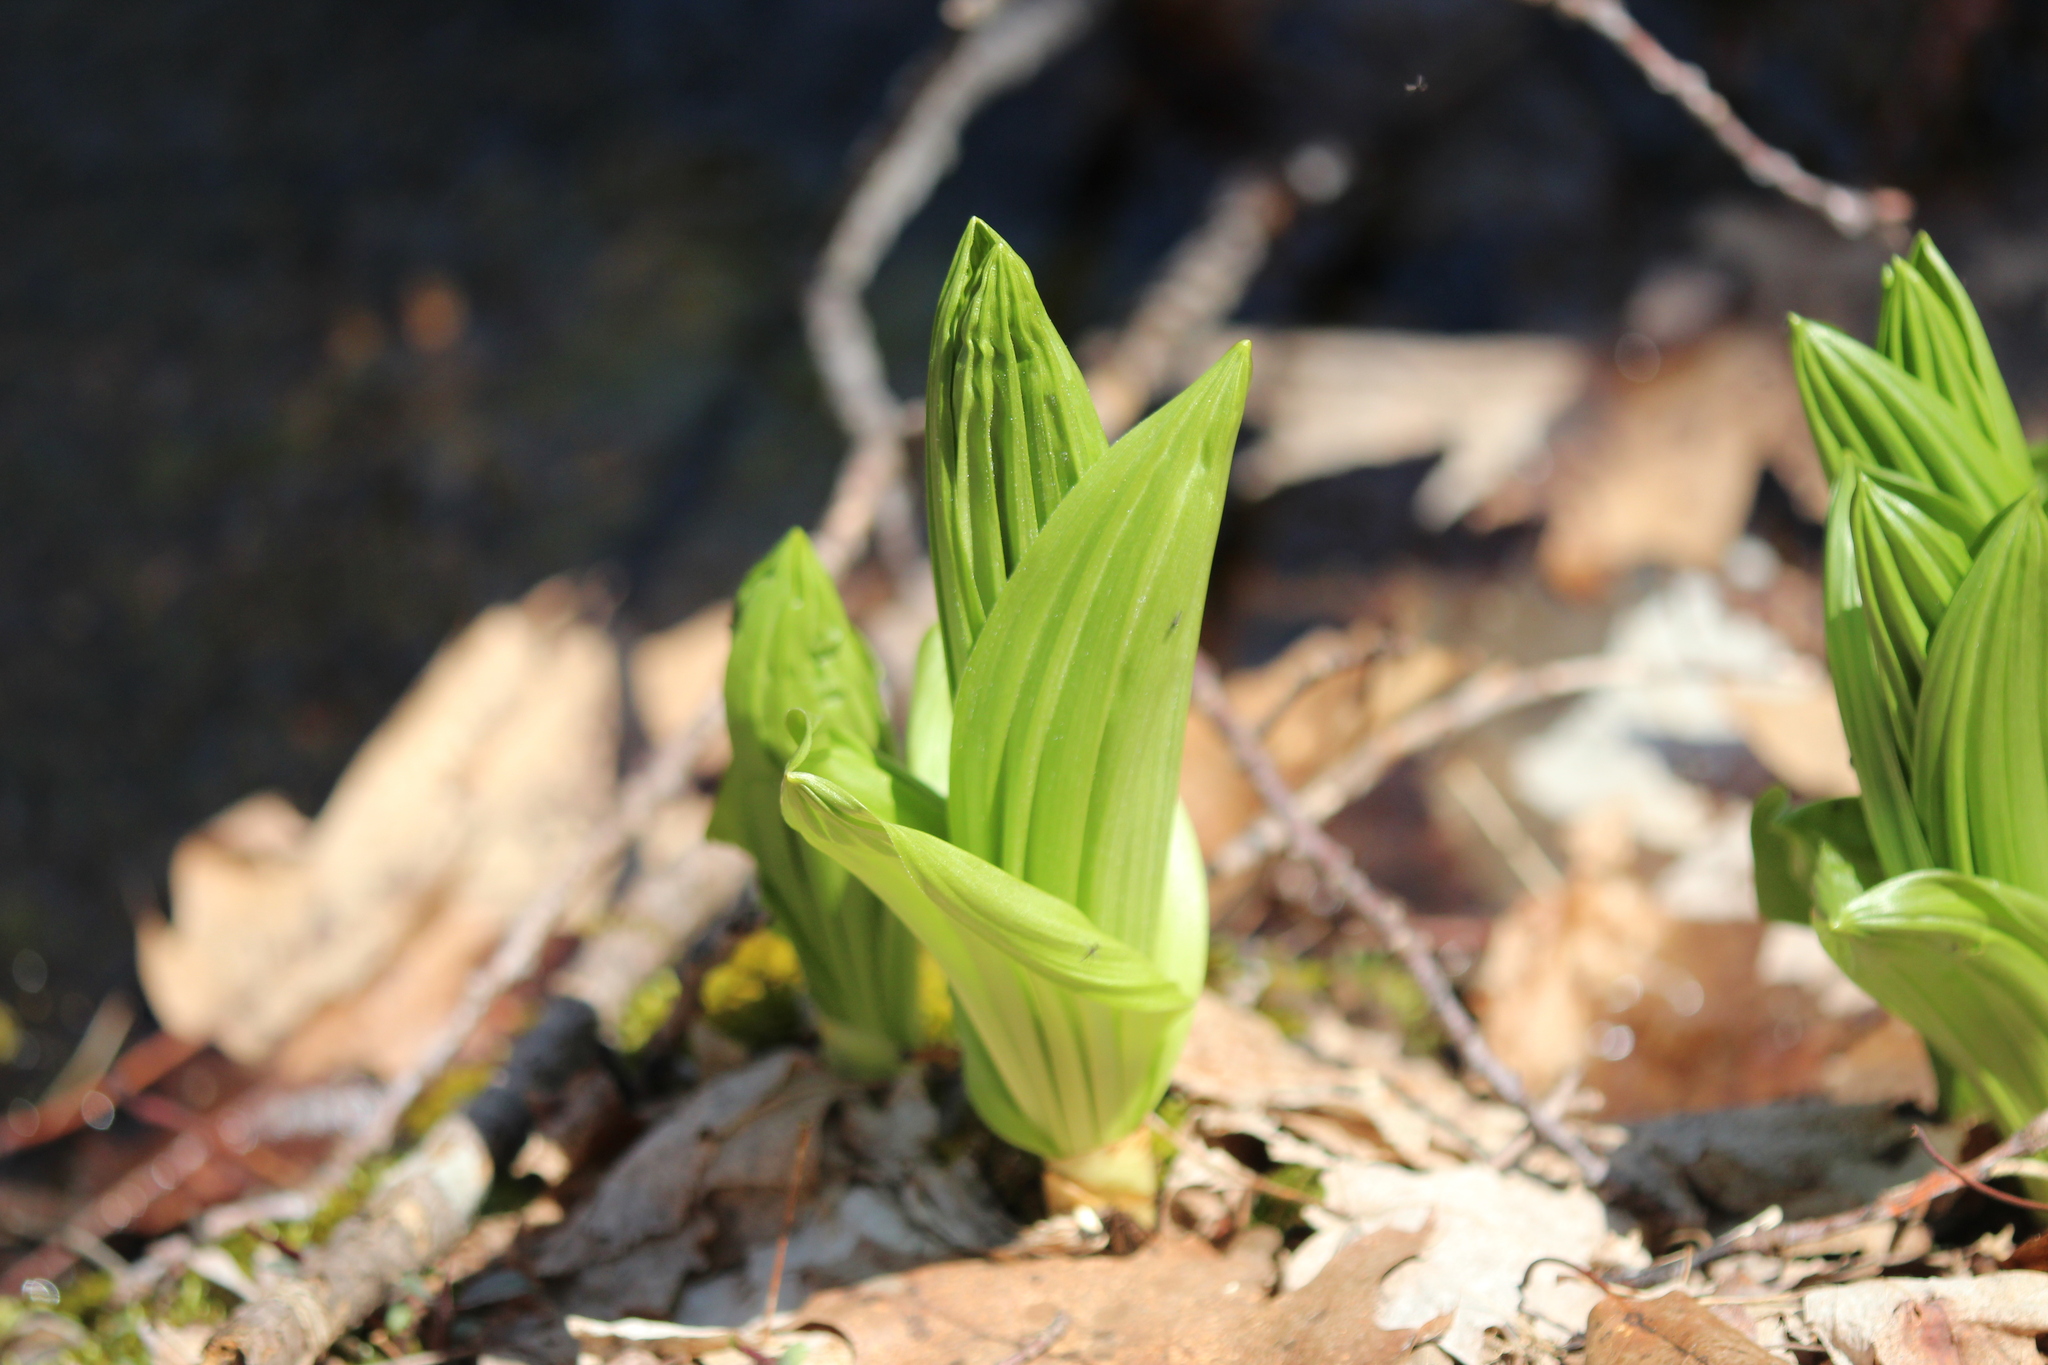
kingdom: Plantae
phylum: Tracheophyta
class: Liliopsida
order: Liliales
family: Melanthiaceae
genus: Veratrum
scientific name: Veratrum viride
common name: American false hellebore
